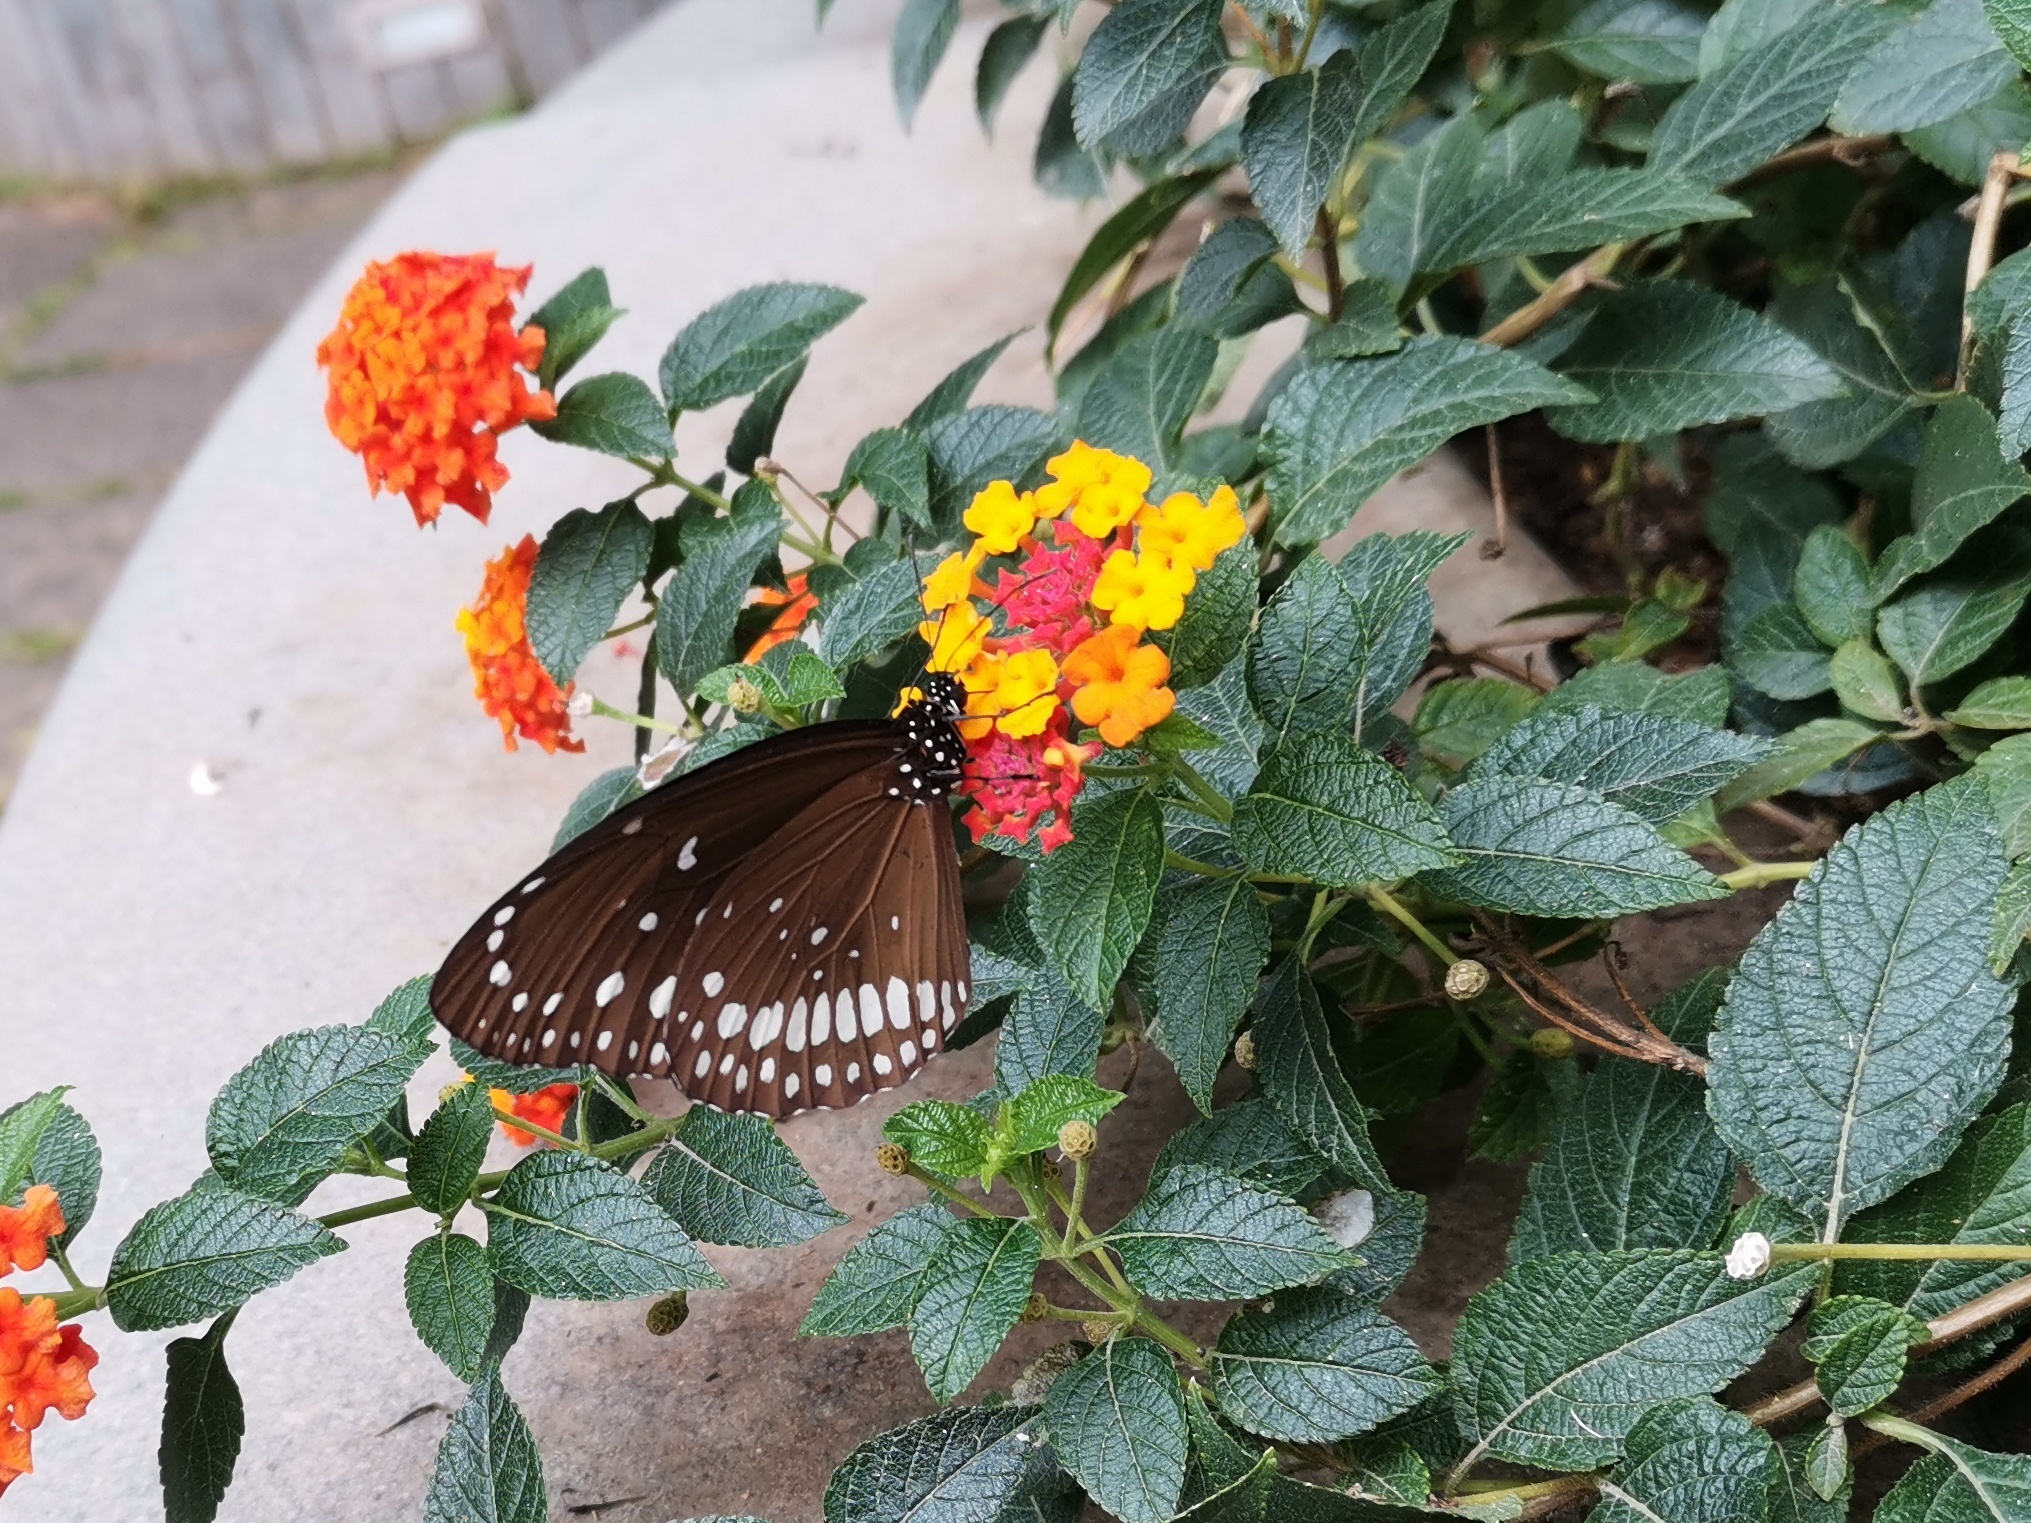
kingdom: Animalia
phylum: Arthropoda
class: Insecta
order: Lepidoptera
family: Nymphalidae
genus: Euploea
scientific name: Euploea core
